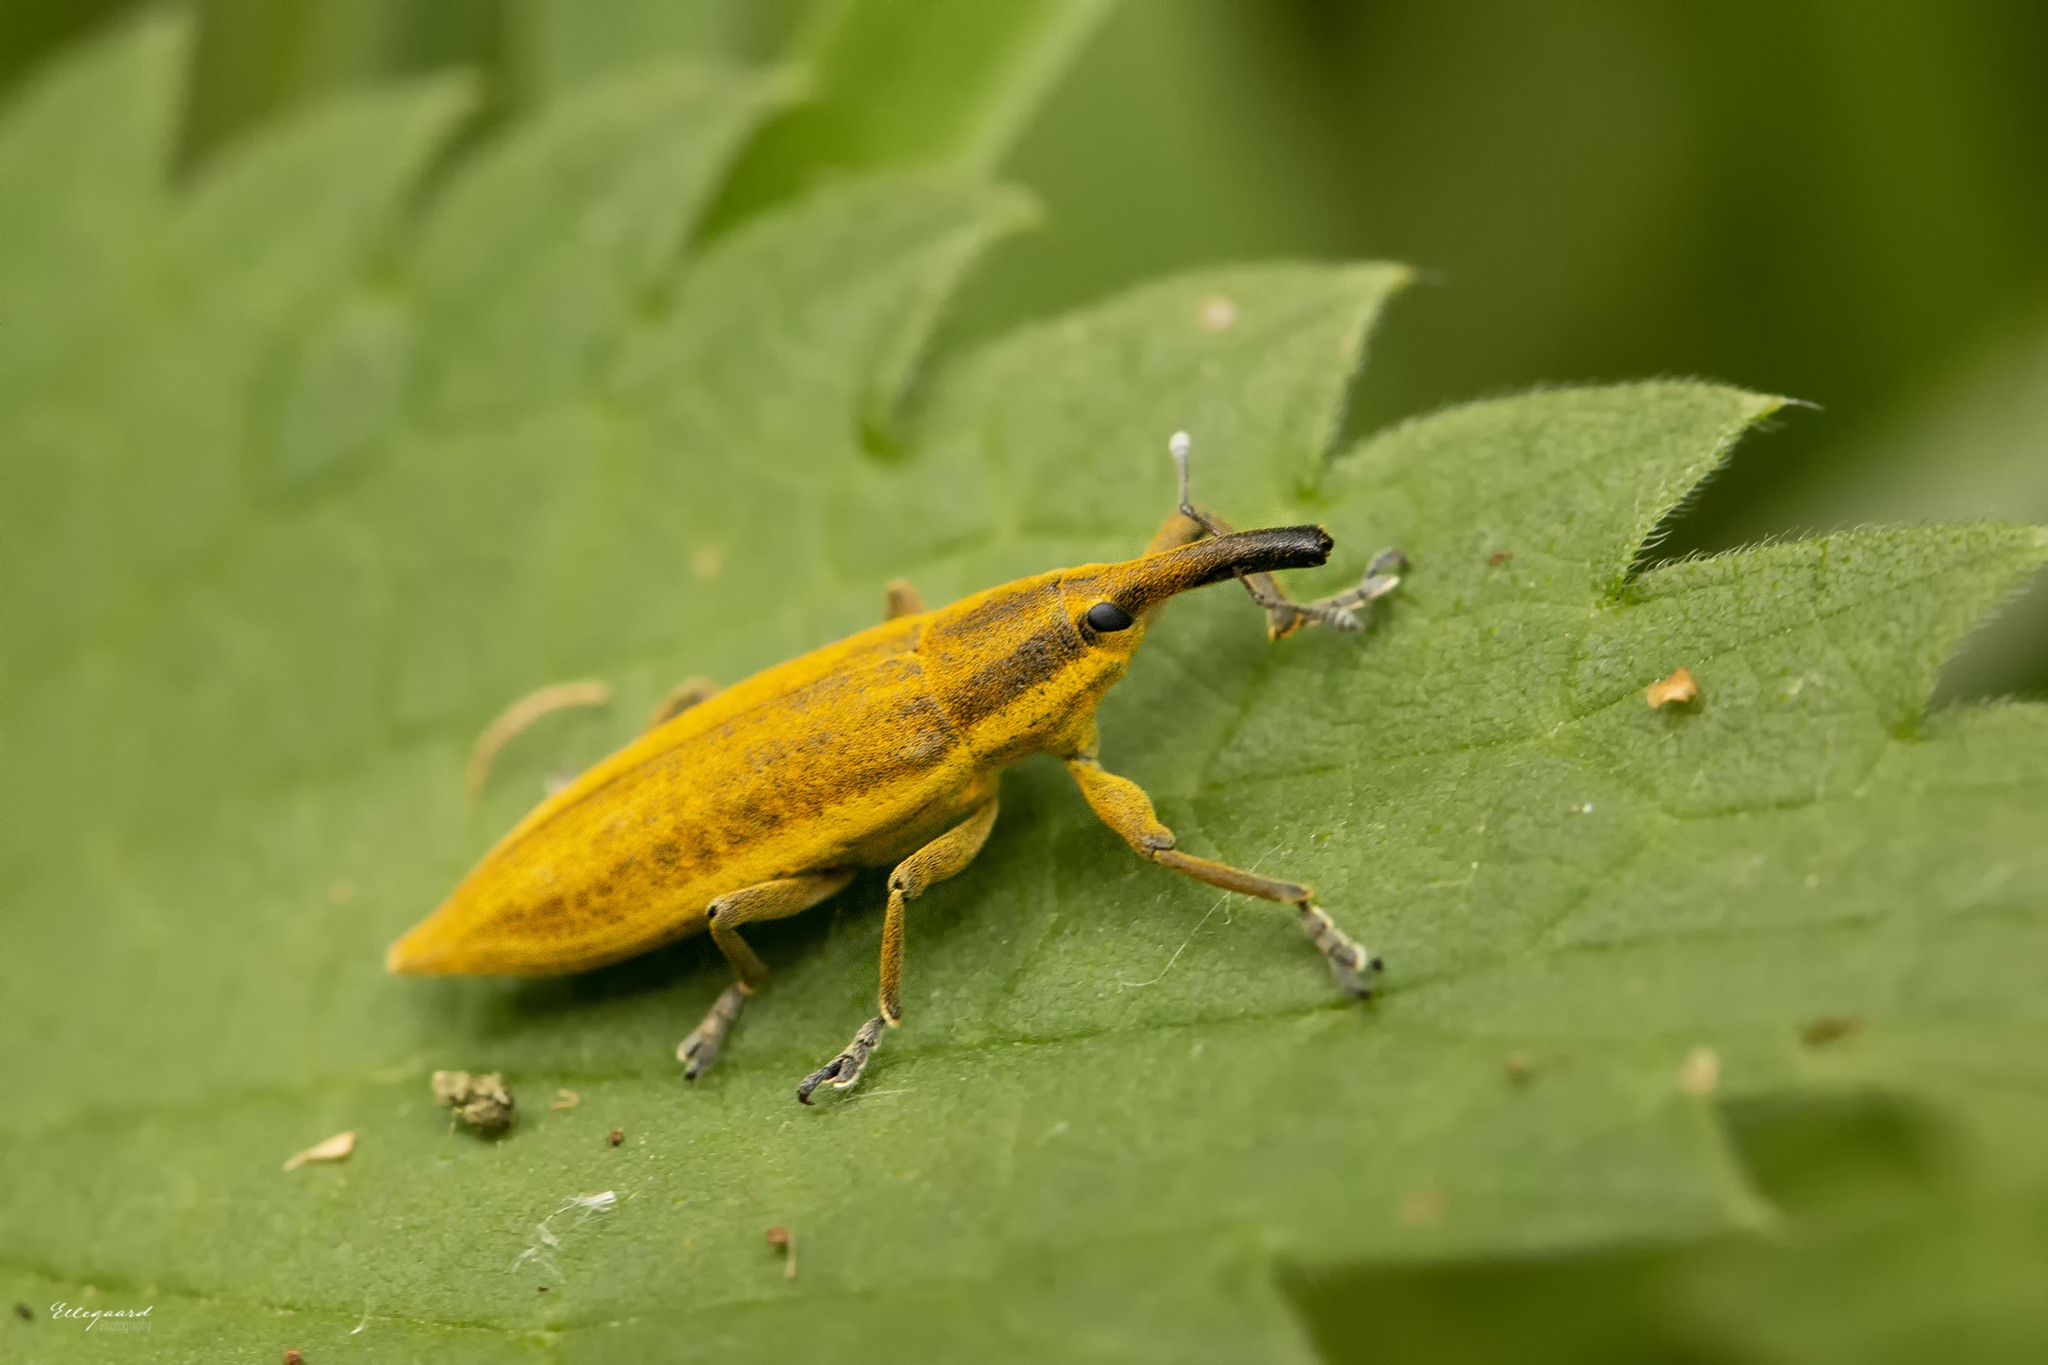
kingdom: Animalia
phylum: Arthropoda
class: Insecta
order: Coleoptera
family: Curculionidae
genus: Lixus
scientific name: Lixus iridis
